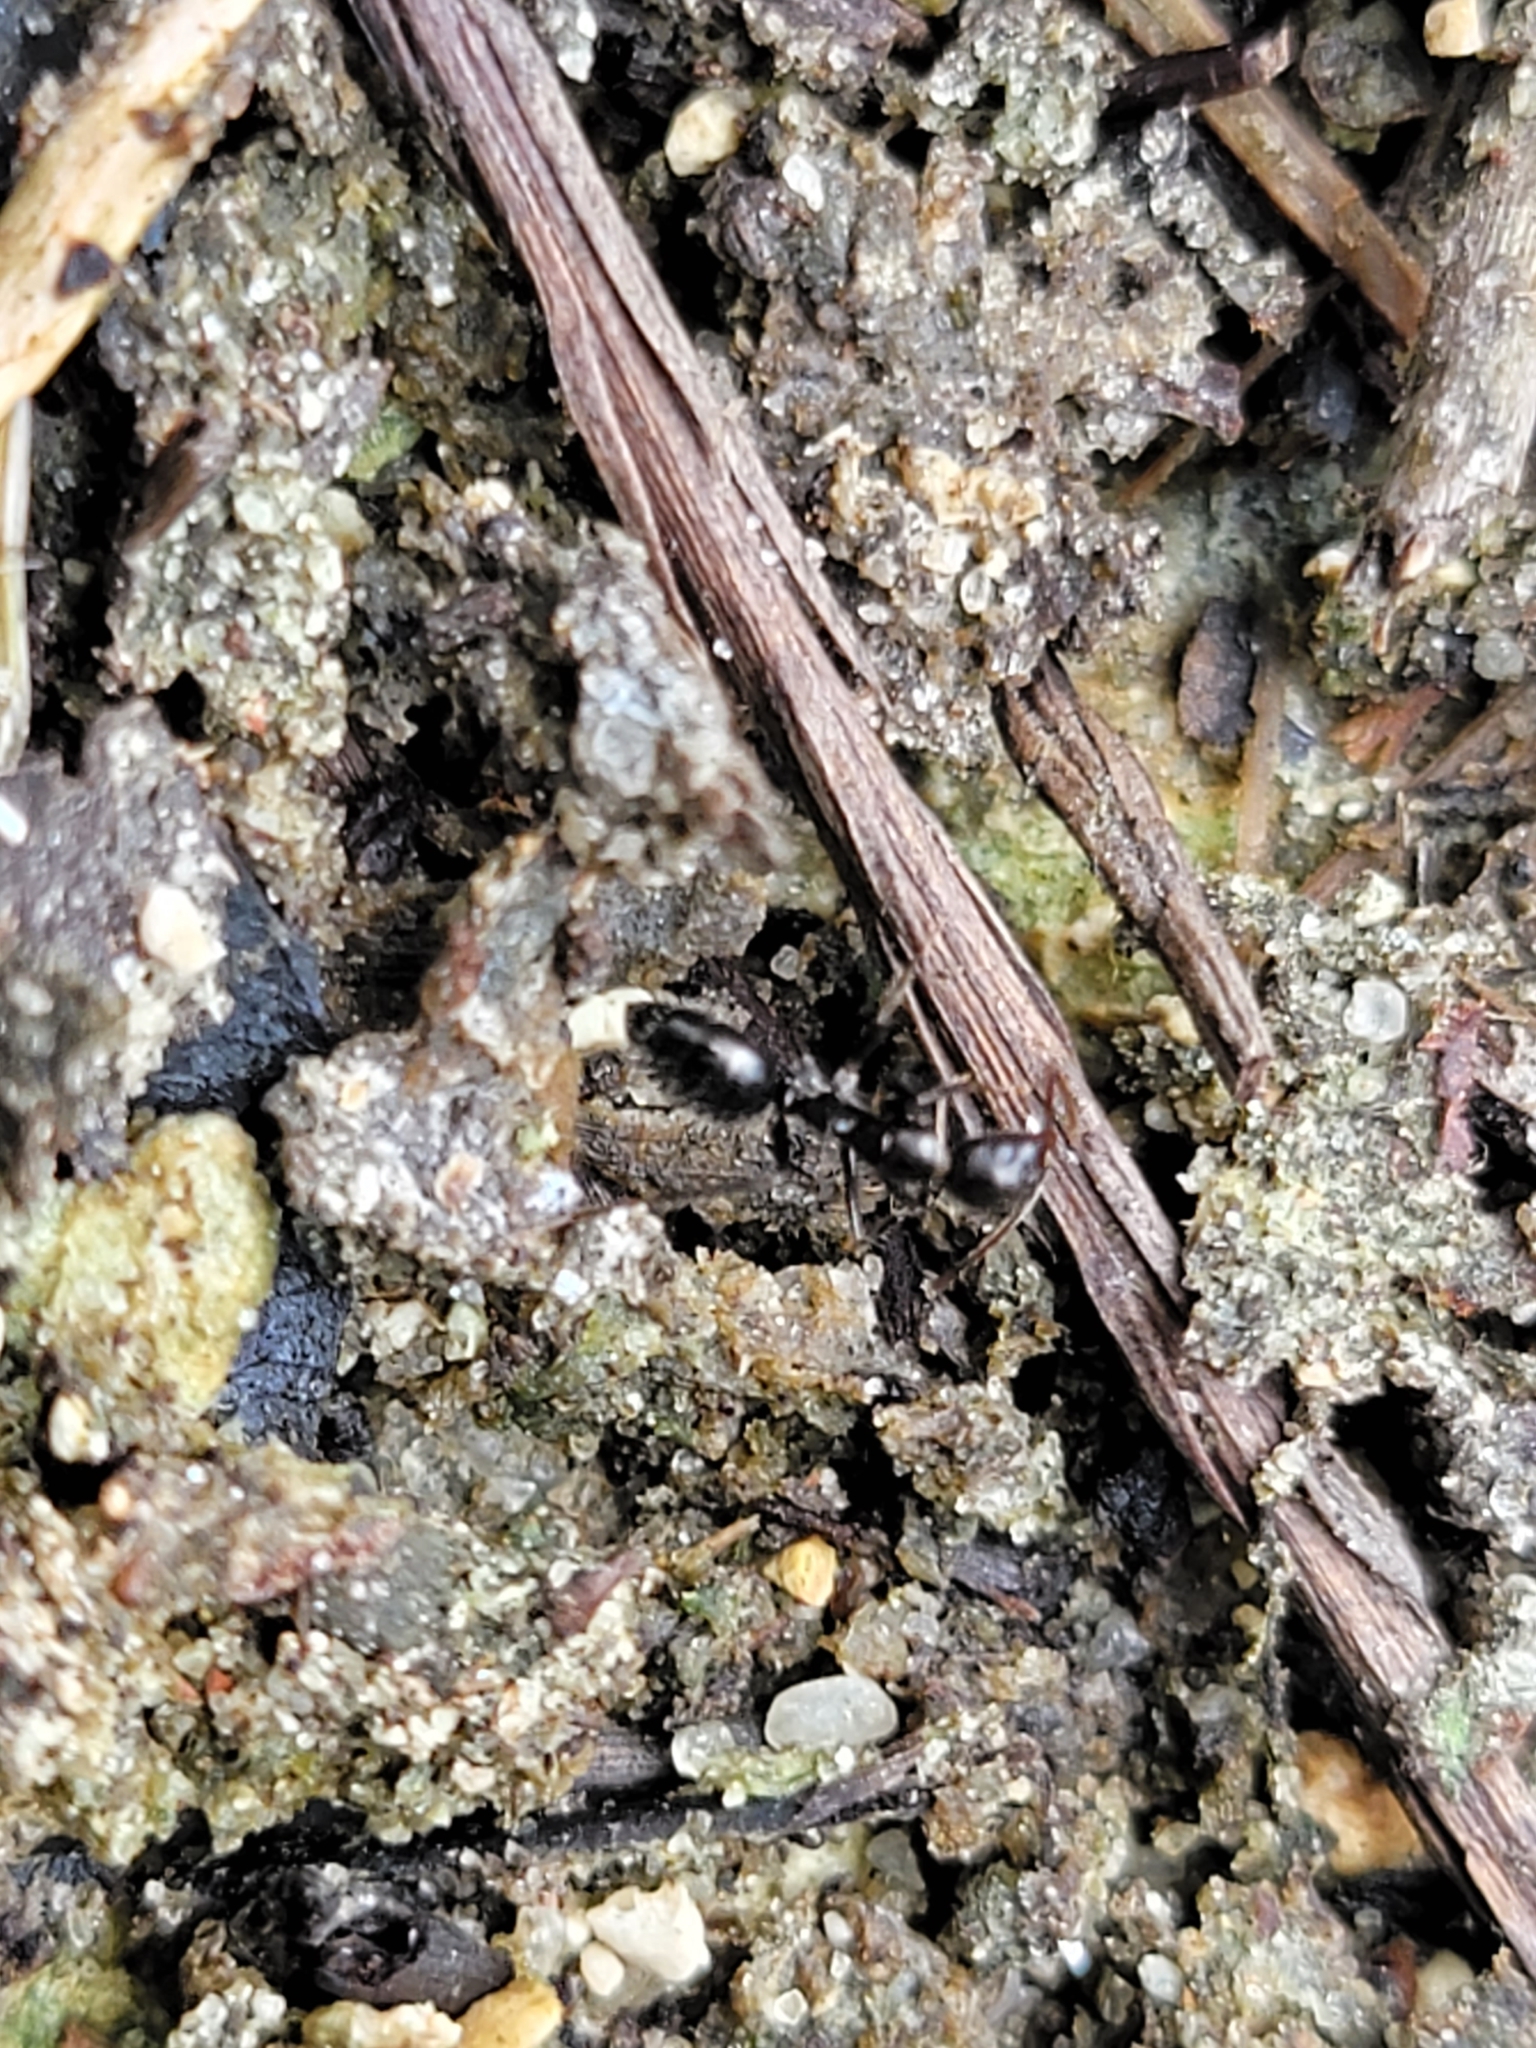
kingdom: Animalia
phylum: Arthropoda
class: Insecta
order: Hymenoptera
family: Formicidae
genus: Camponotus
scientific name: Camponotus sexguttatus
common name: Neotropical carpenter ant
